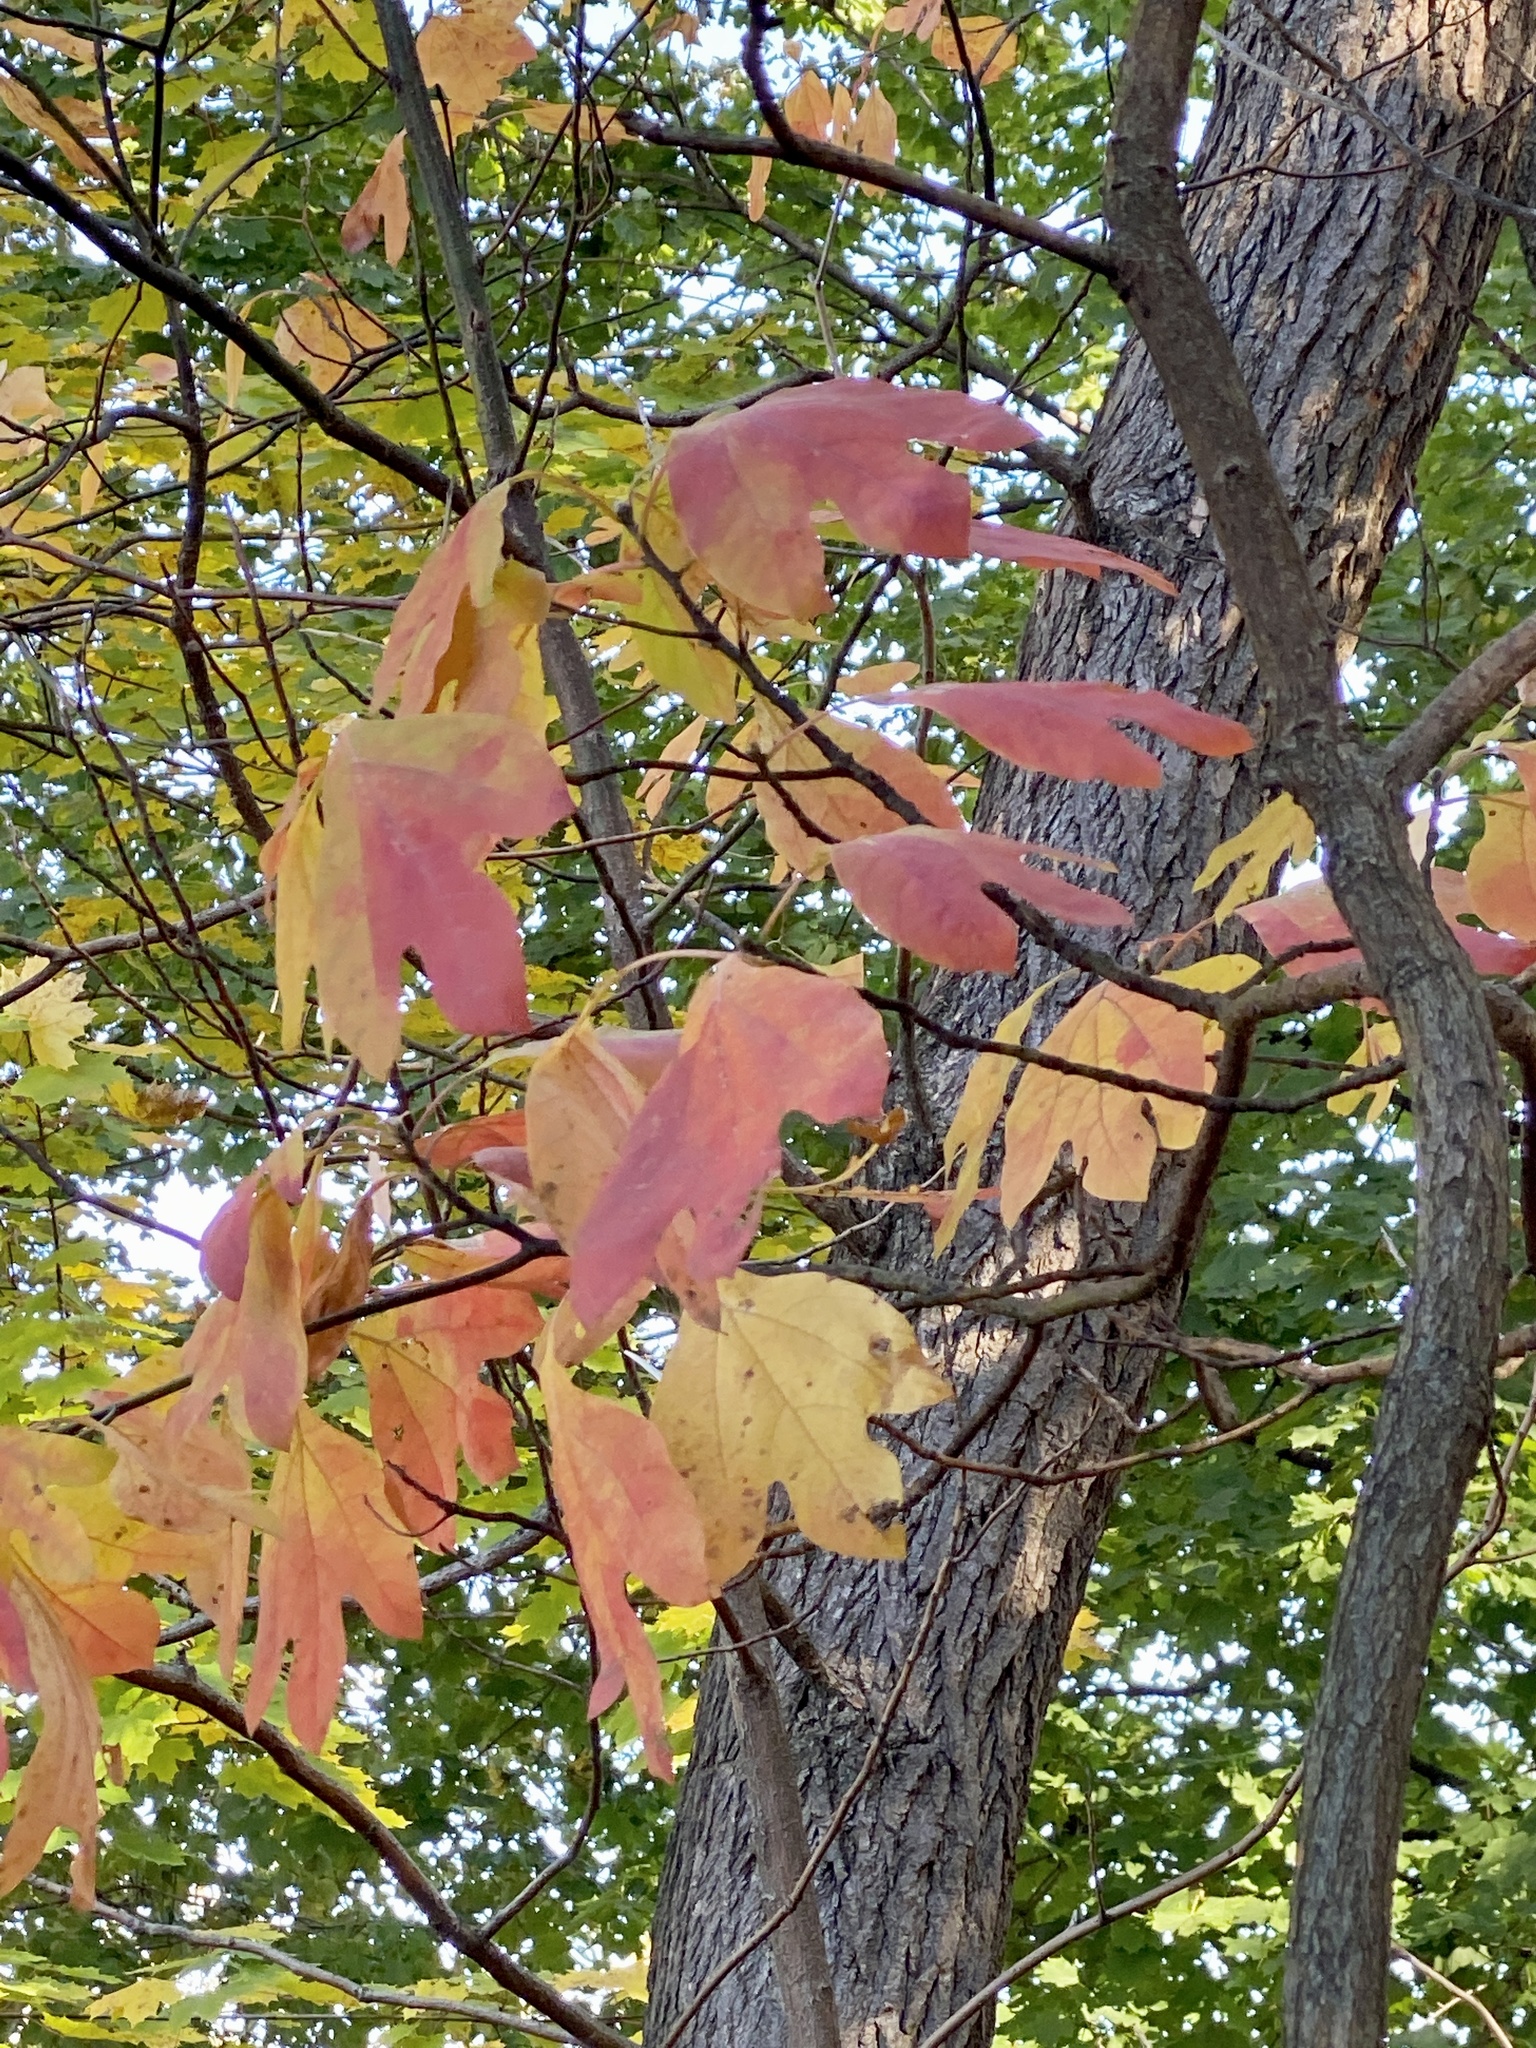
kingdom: Plantae
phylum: Tracheophyta
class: Magnoliopsida
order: Laurales
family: Lauraceae
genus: Sassafras
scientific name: Sassafras albidum
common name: Sassafras
